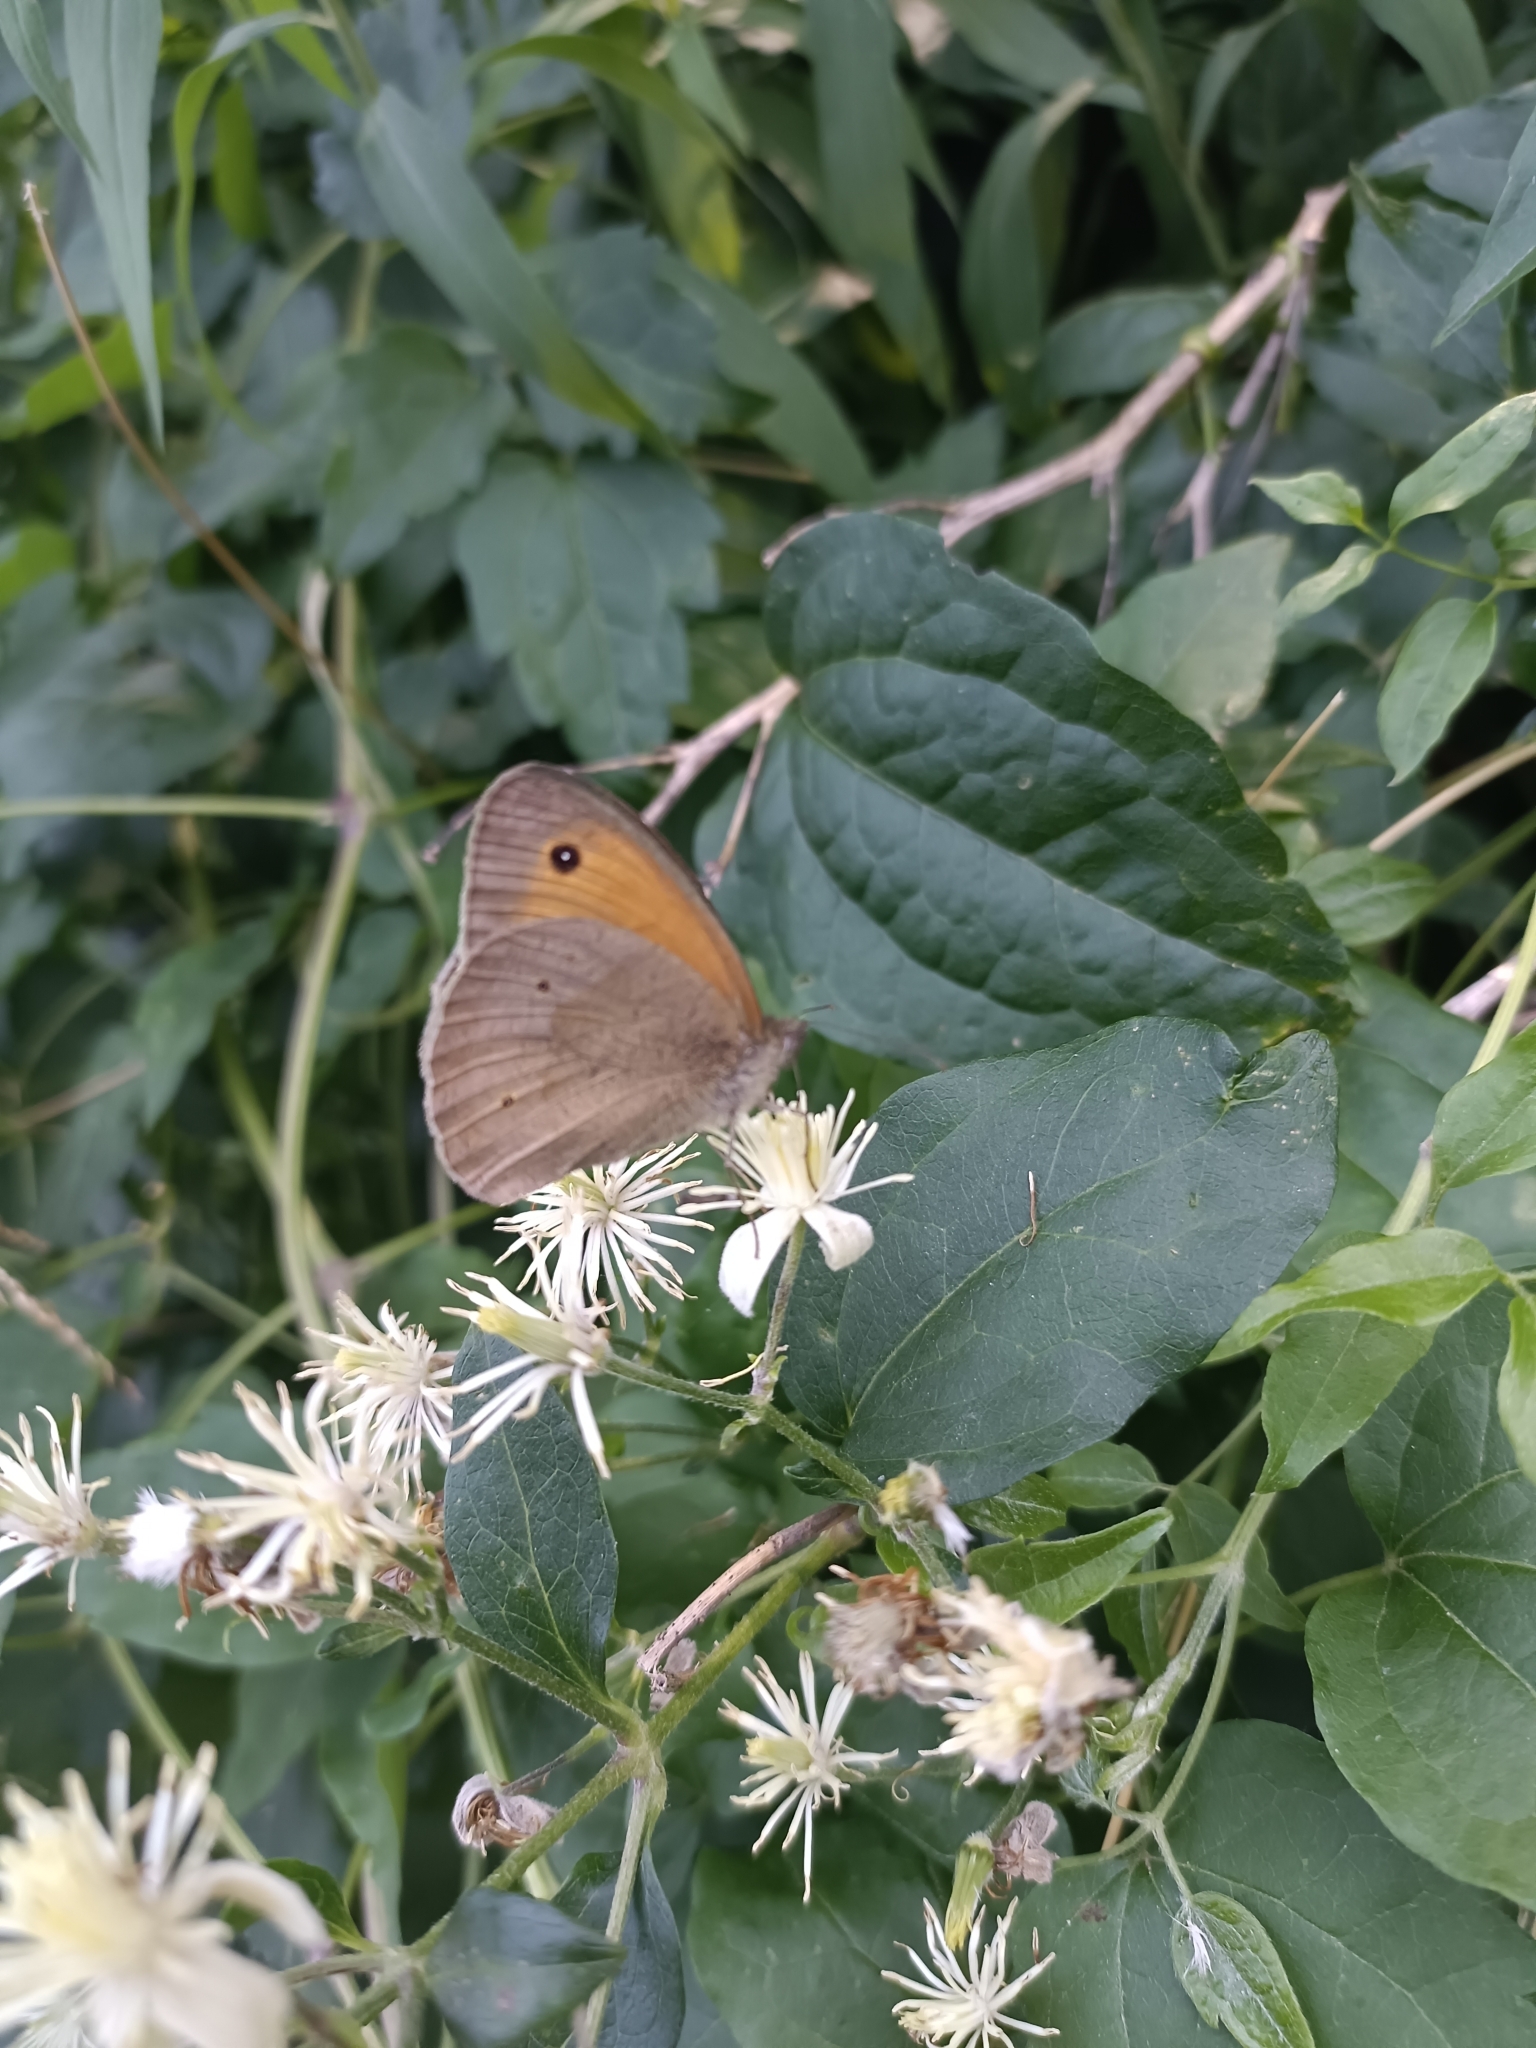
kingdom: Animalia
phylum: Arthropoda
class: Insecta
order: Lepidoptera
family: Nymphalidae
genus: Maniola
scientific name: Maniola jurtina
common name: Meadow brown
